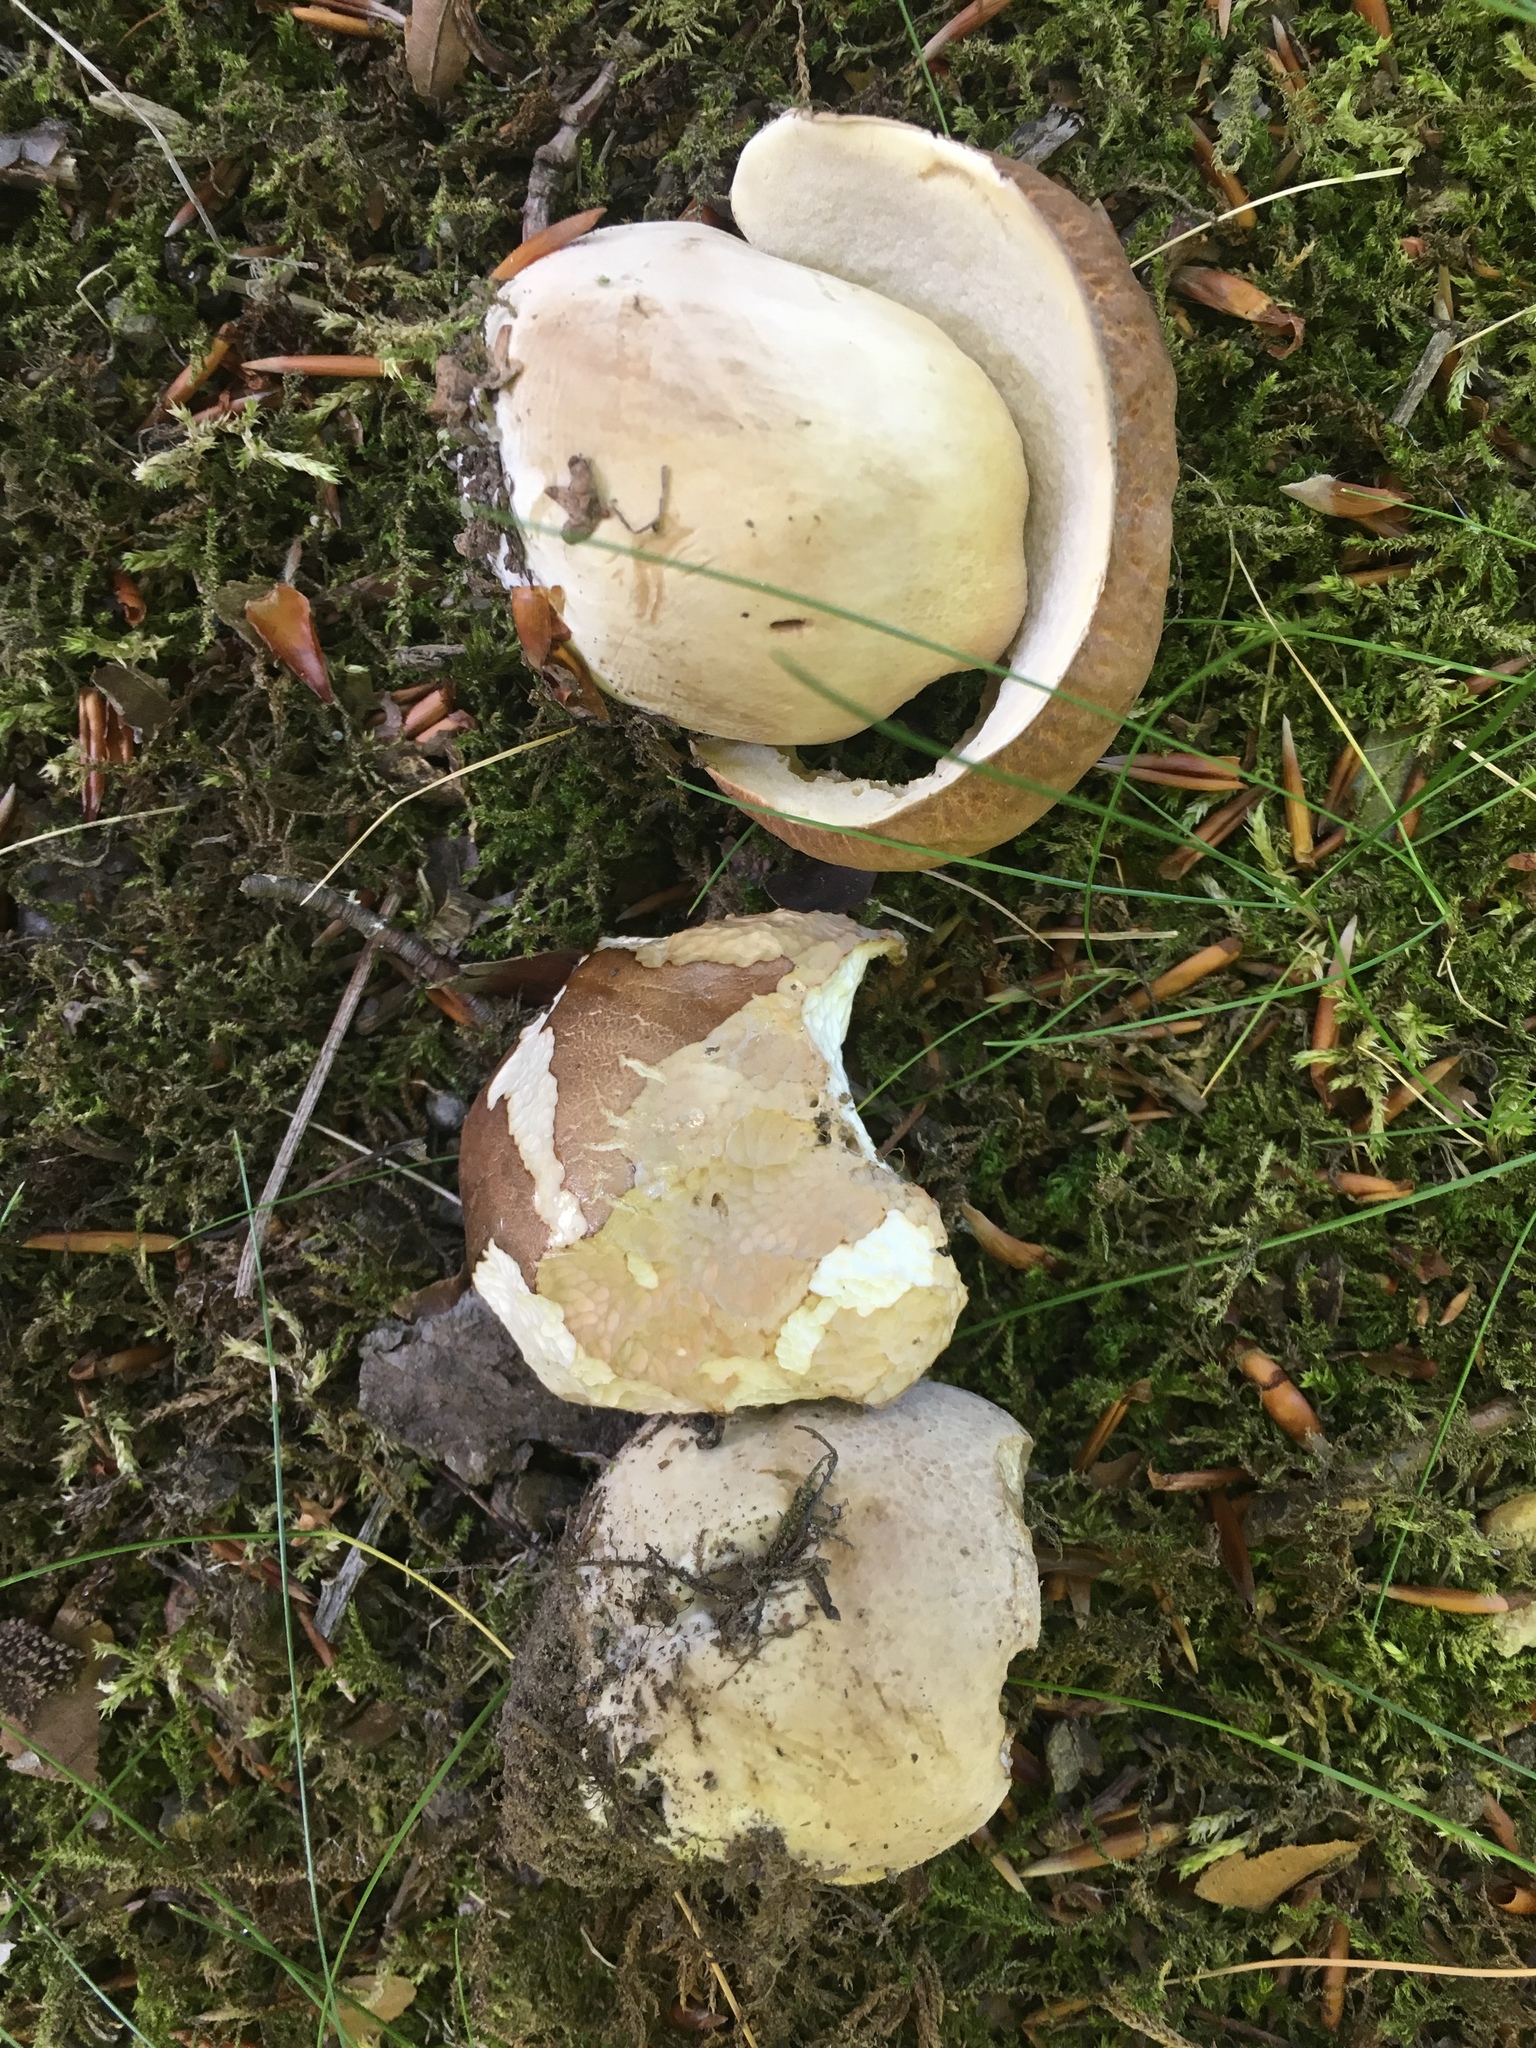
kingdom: Fungi
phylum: Basidiomycota
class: Agaricomycetes
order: Boletales
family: Boletaceae
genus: Boletus
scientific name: Boletus reticulatus
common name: Summer bolete
